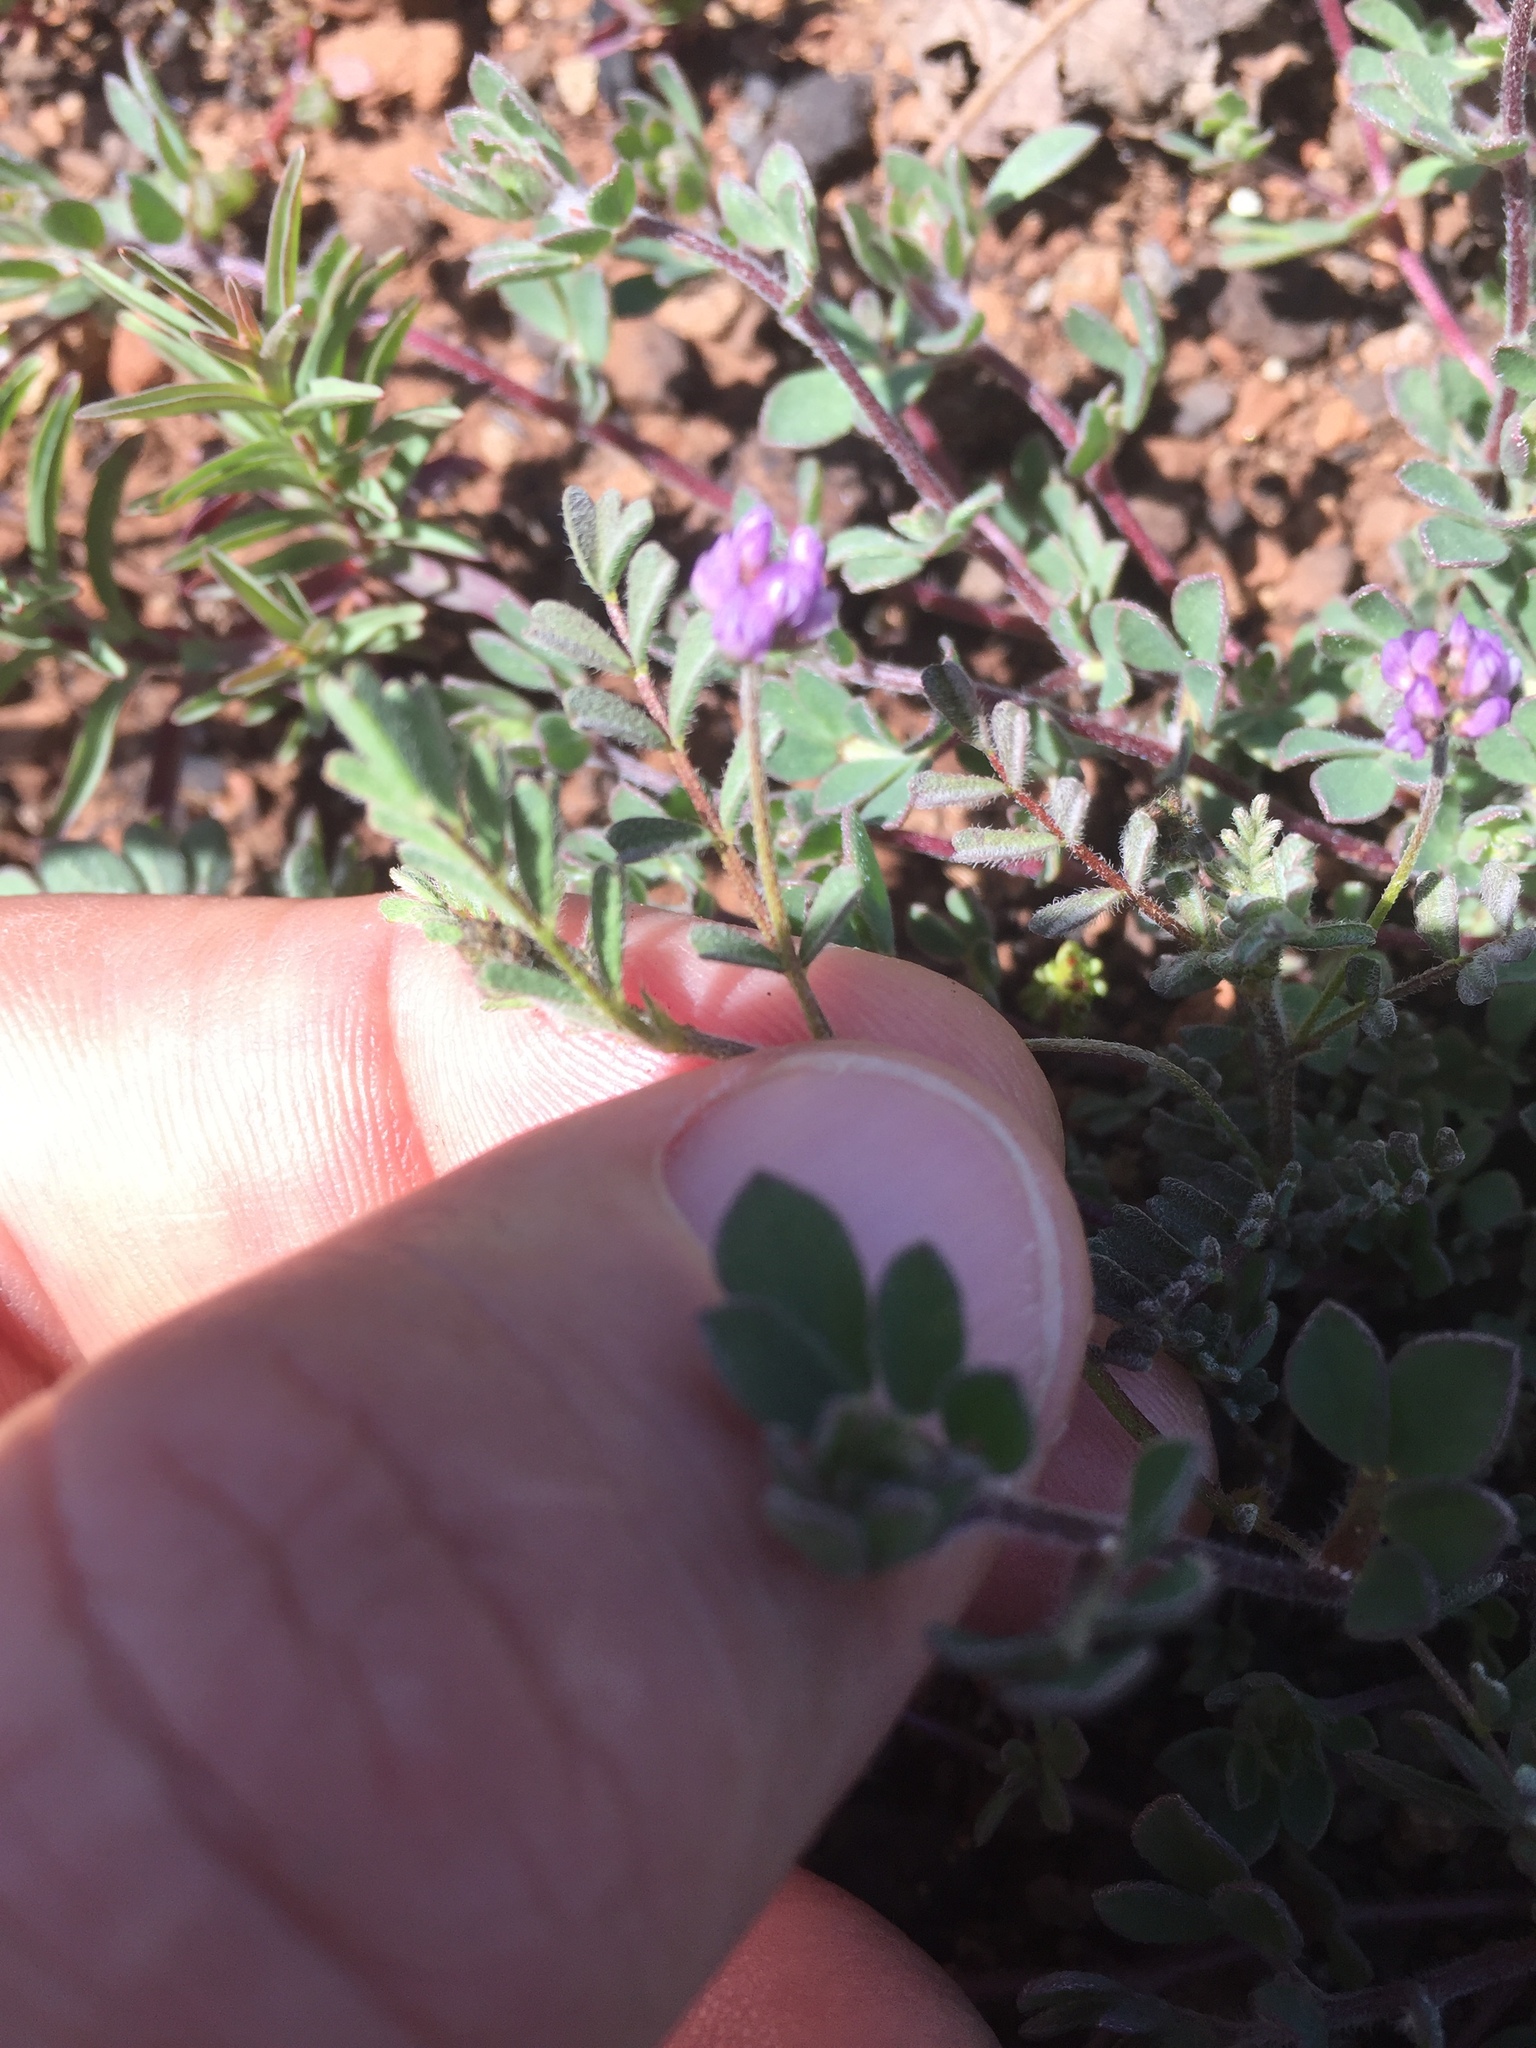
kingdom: Plantae
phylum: Tracheophyta
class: Magnoliopsida
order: Fabales
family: Fabaceae
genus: Astragalus
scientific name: Astragalus gambelianus
